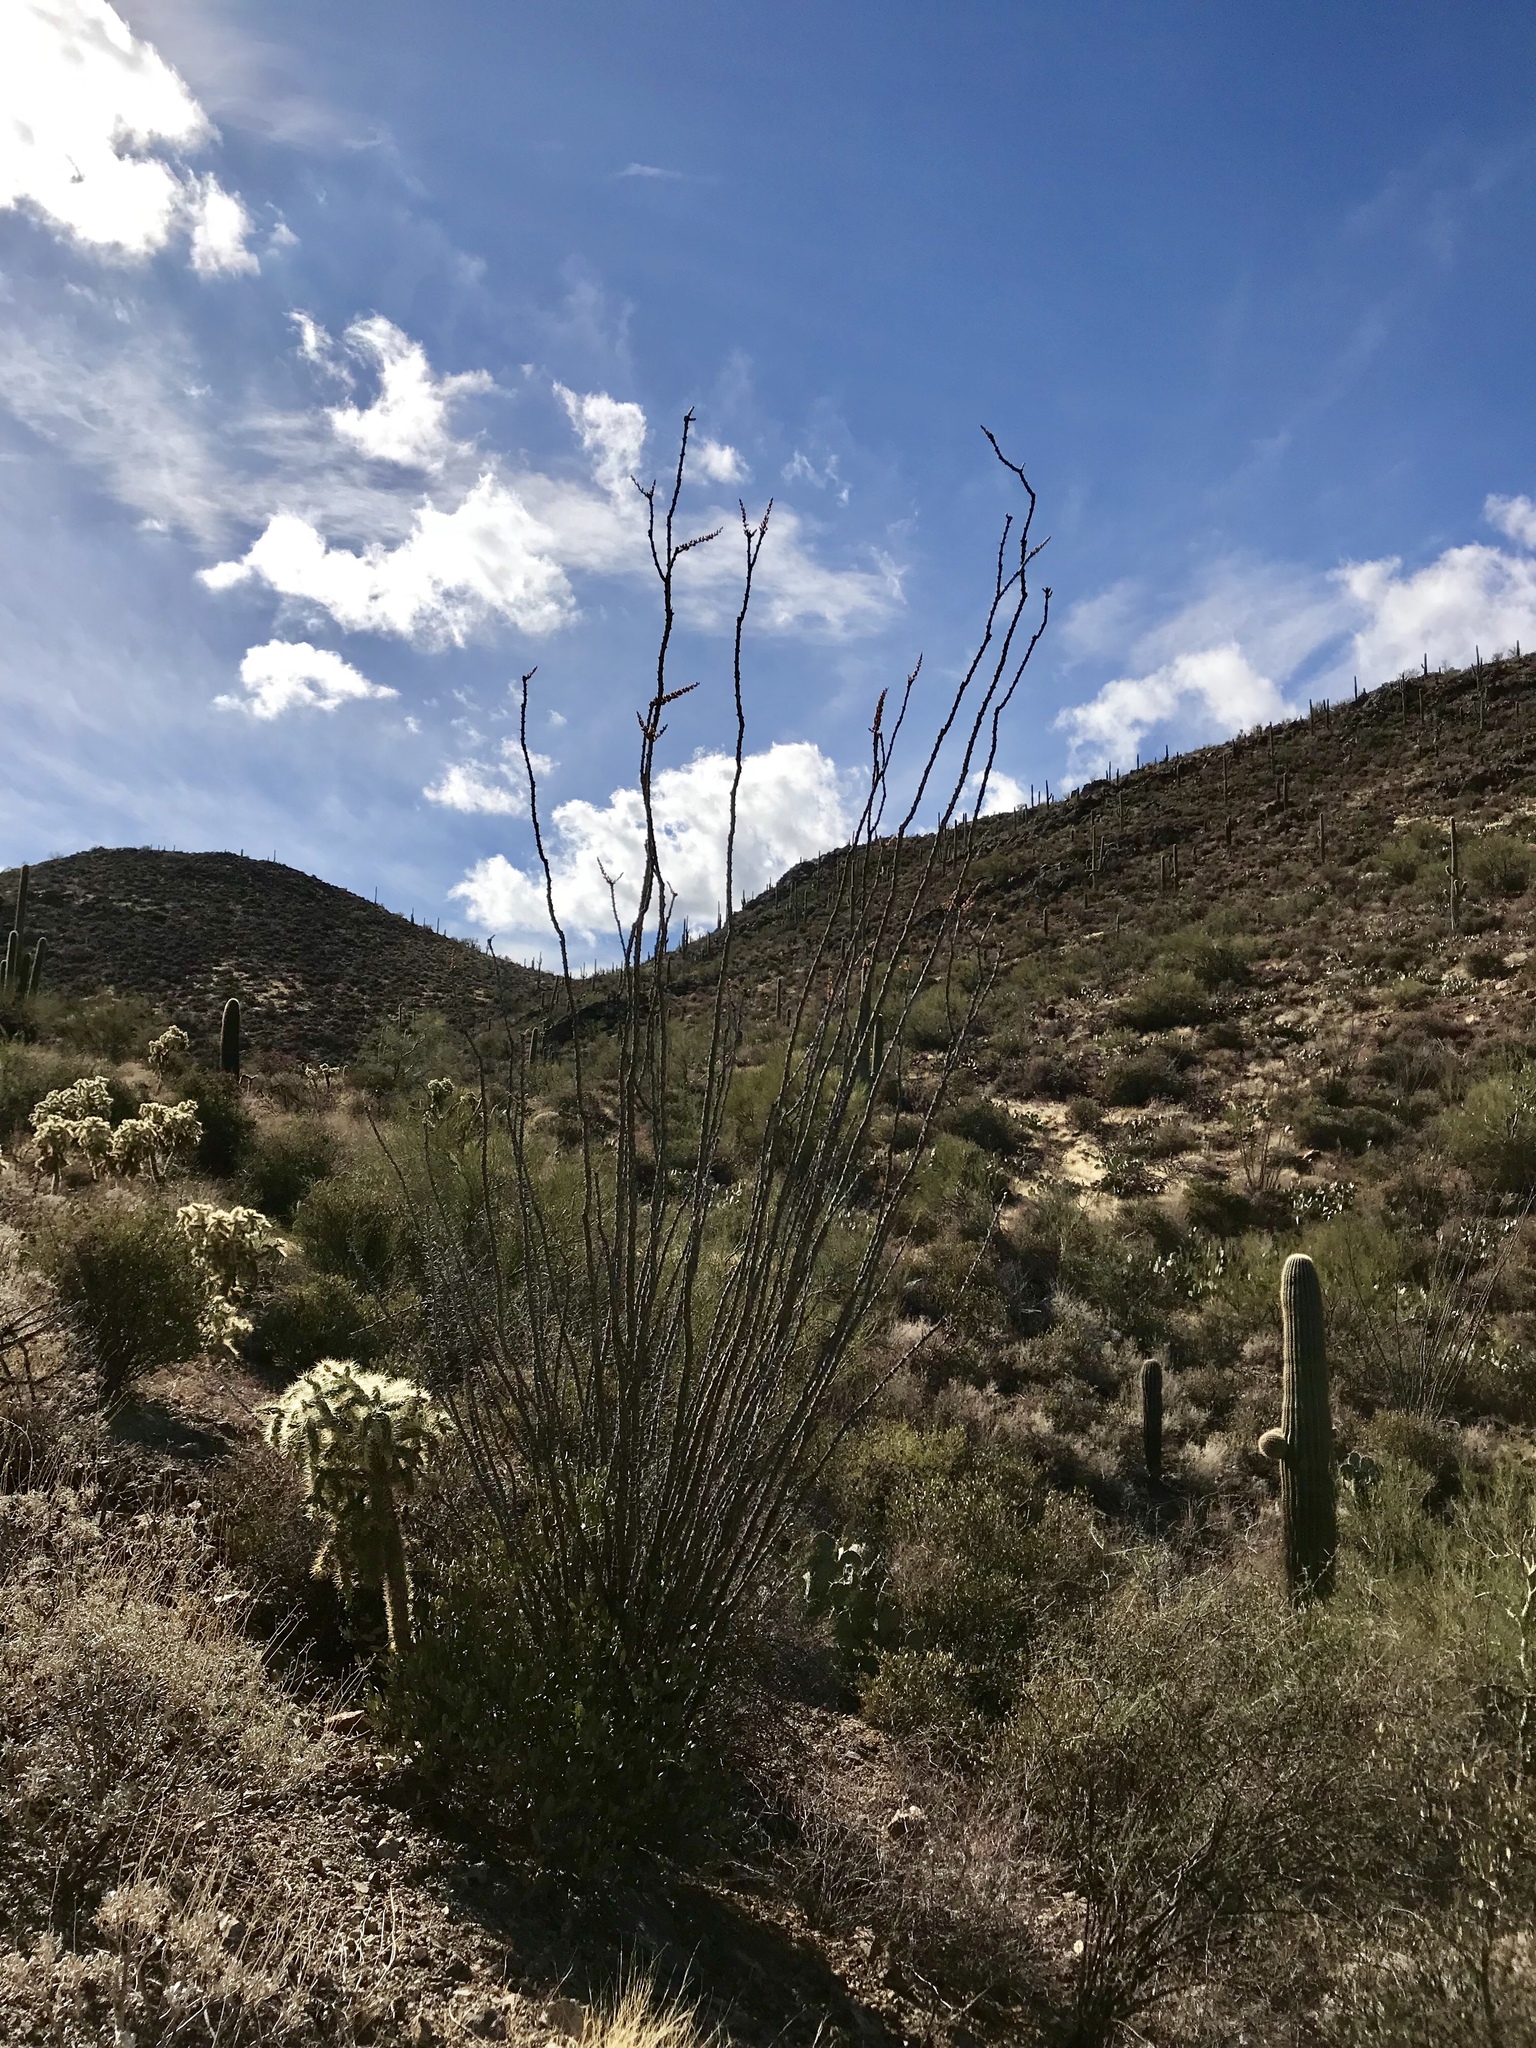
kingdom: Plantae
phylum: Tracheophyta
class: Magnoliopsida
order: Ericales
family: Fouquieriaceae
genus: Fouquieria
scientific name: Fouquieria splendens
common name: Vine-cactus
